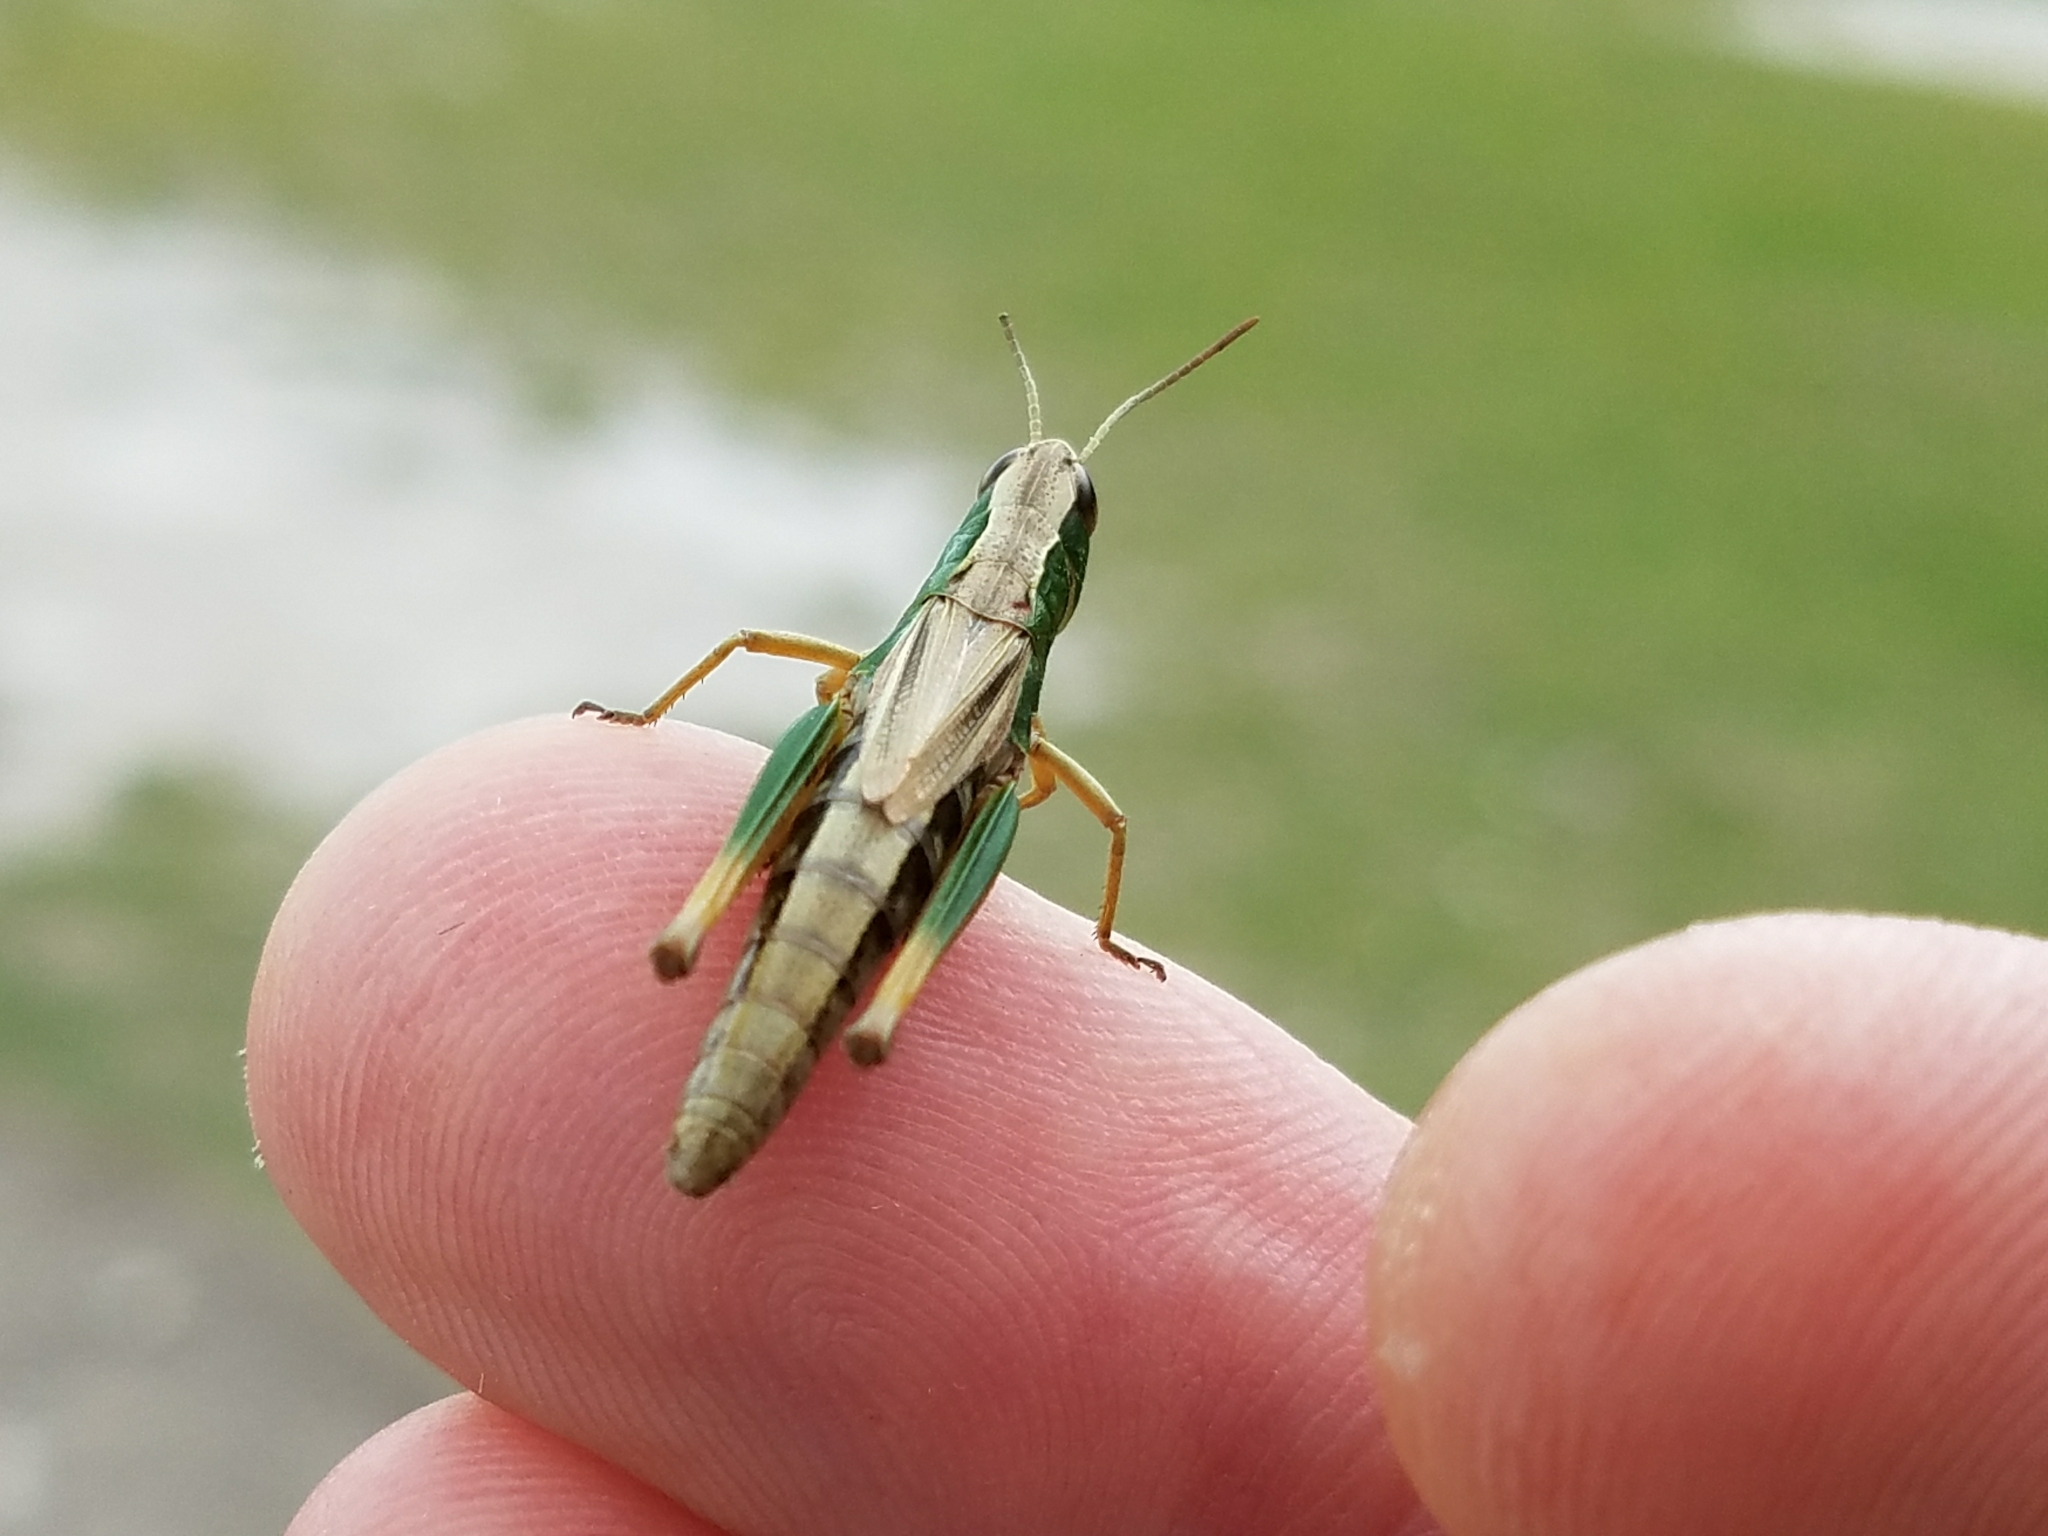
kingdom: Animalia
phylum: Arthropoda
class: Insecta
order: Orthoptera
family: Acrididae
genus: Pseudochorthippus
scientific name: Pseudochorthippus parallelus
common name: Meadow grasshopper
